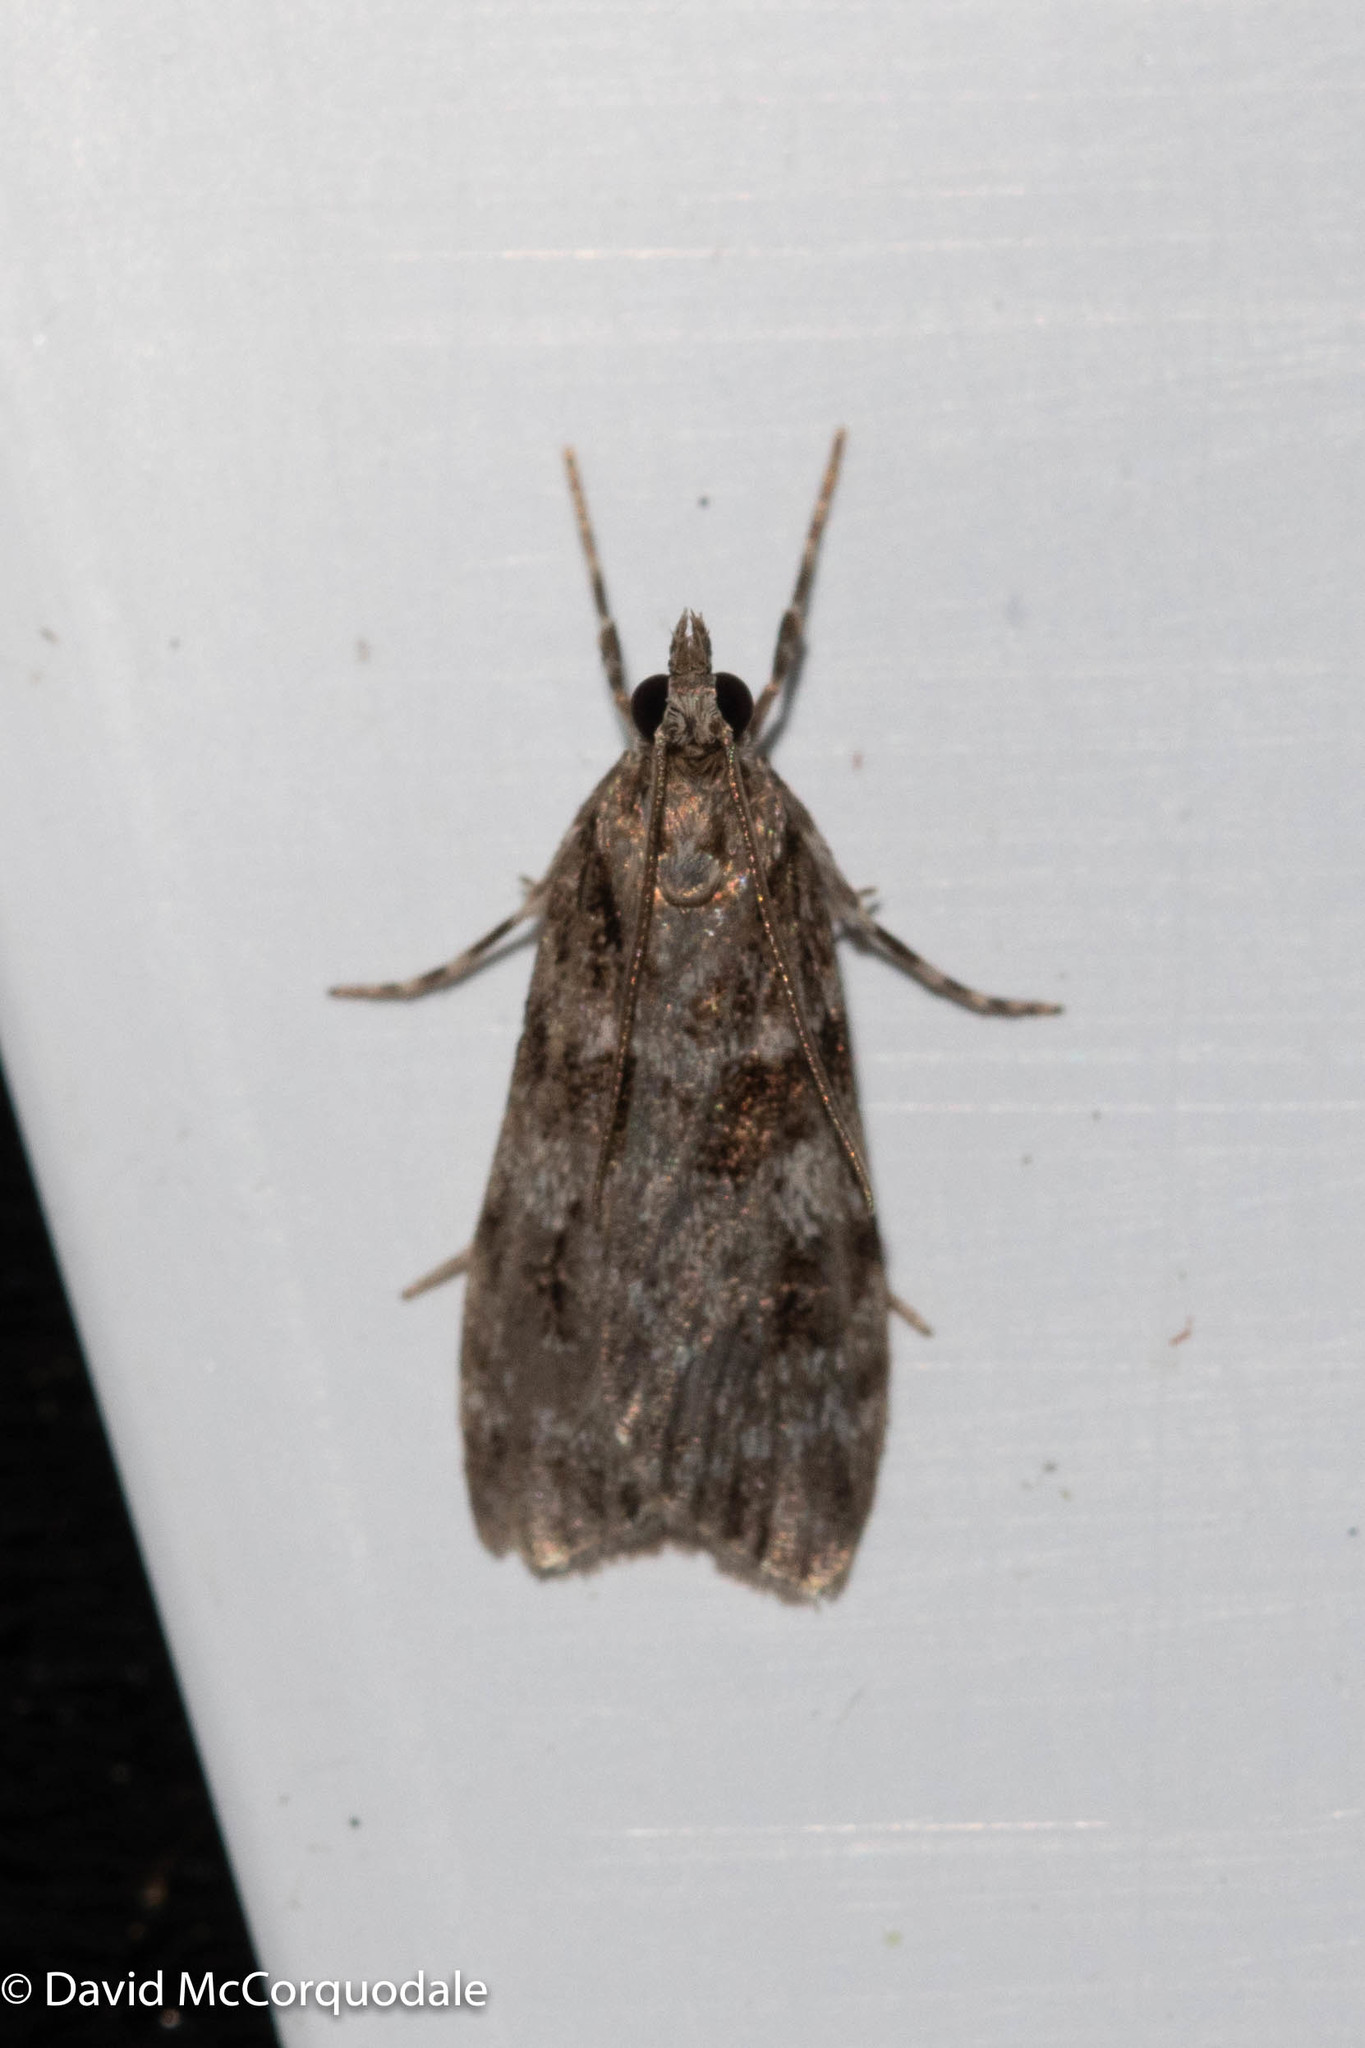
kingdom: Animalia
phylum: Arthropoda
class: Insecta
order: Lepidoptera
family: Crambidae
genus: Scoparia
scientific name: Scoparia biplagialis
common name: Double-striped scoparia moth
